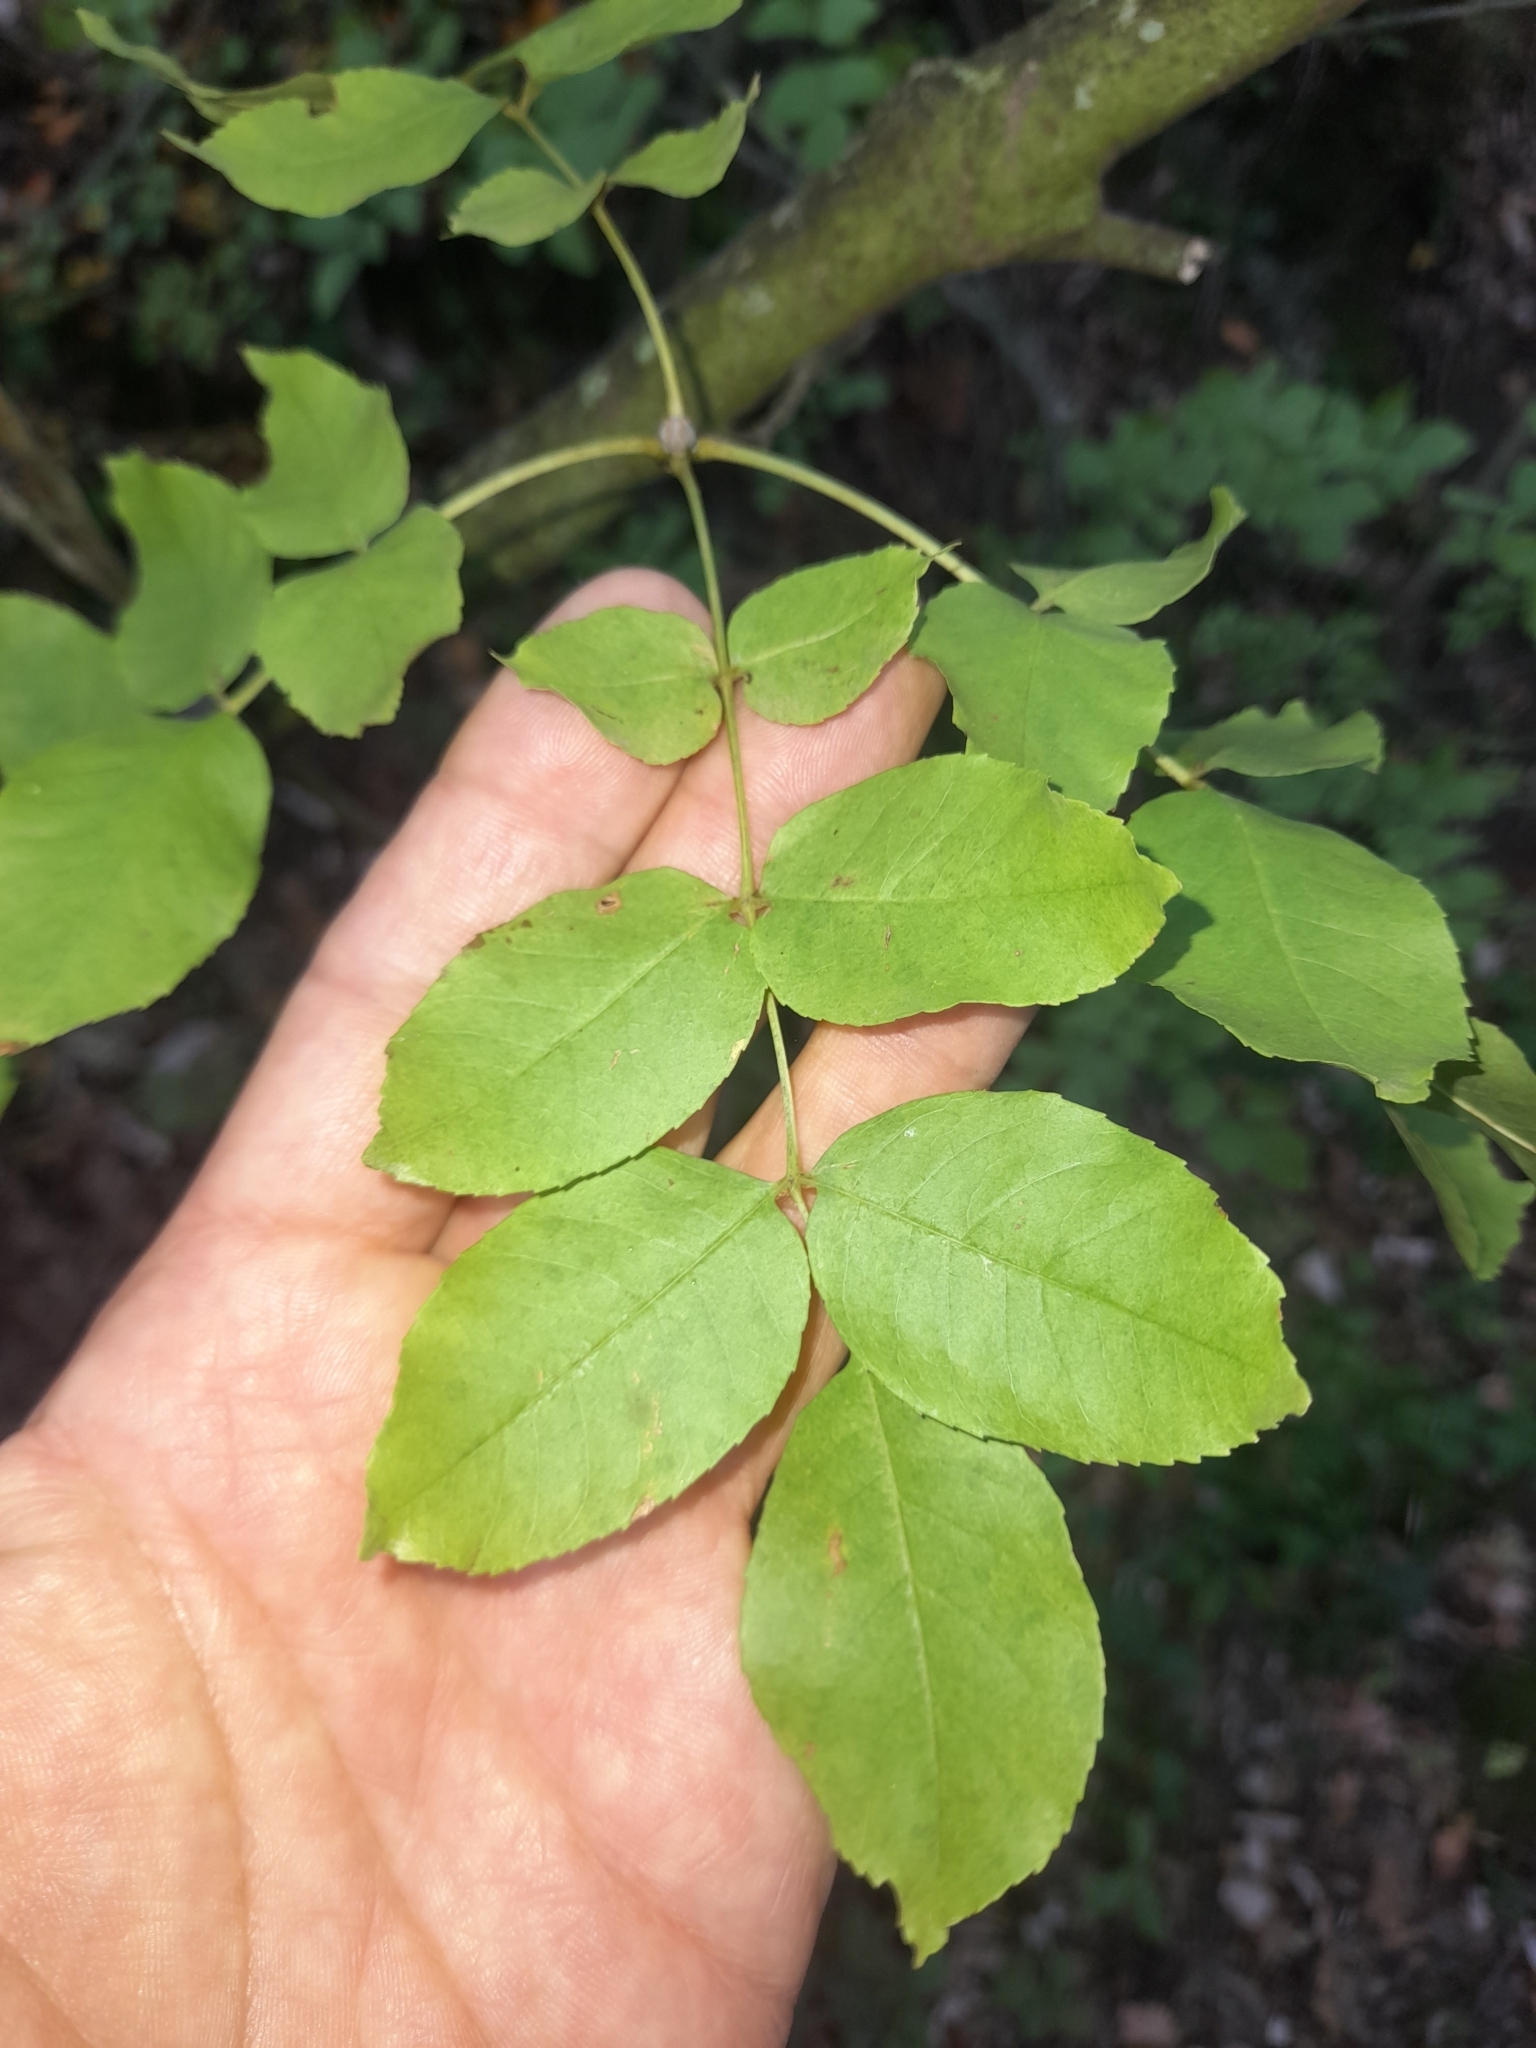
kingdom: Plantae
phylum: Tracheophyta
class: Magnoliopsida
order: Lamiales
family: Oleaceae
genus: Fraxinus
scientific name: Fraxinus ornus
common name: Manna ash
